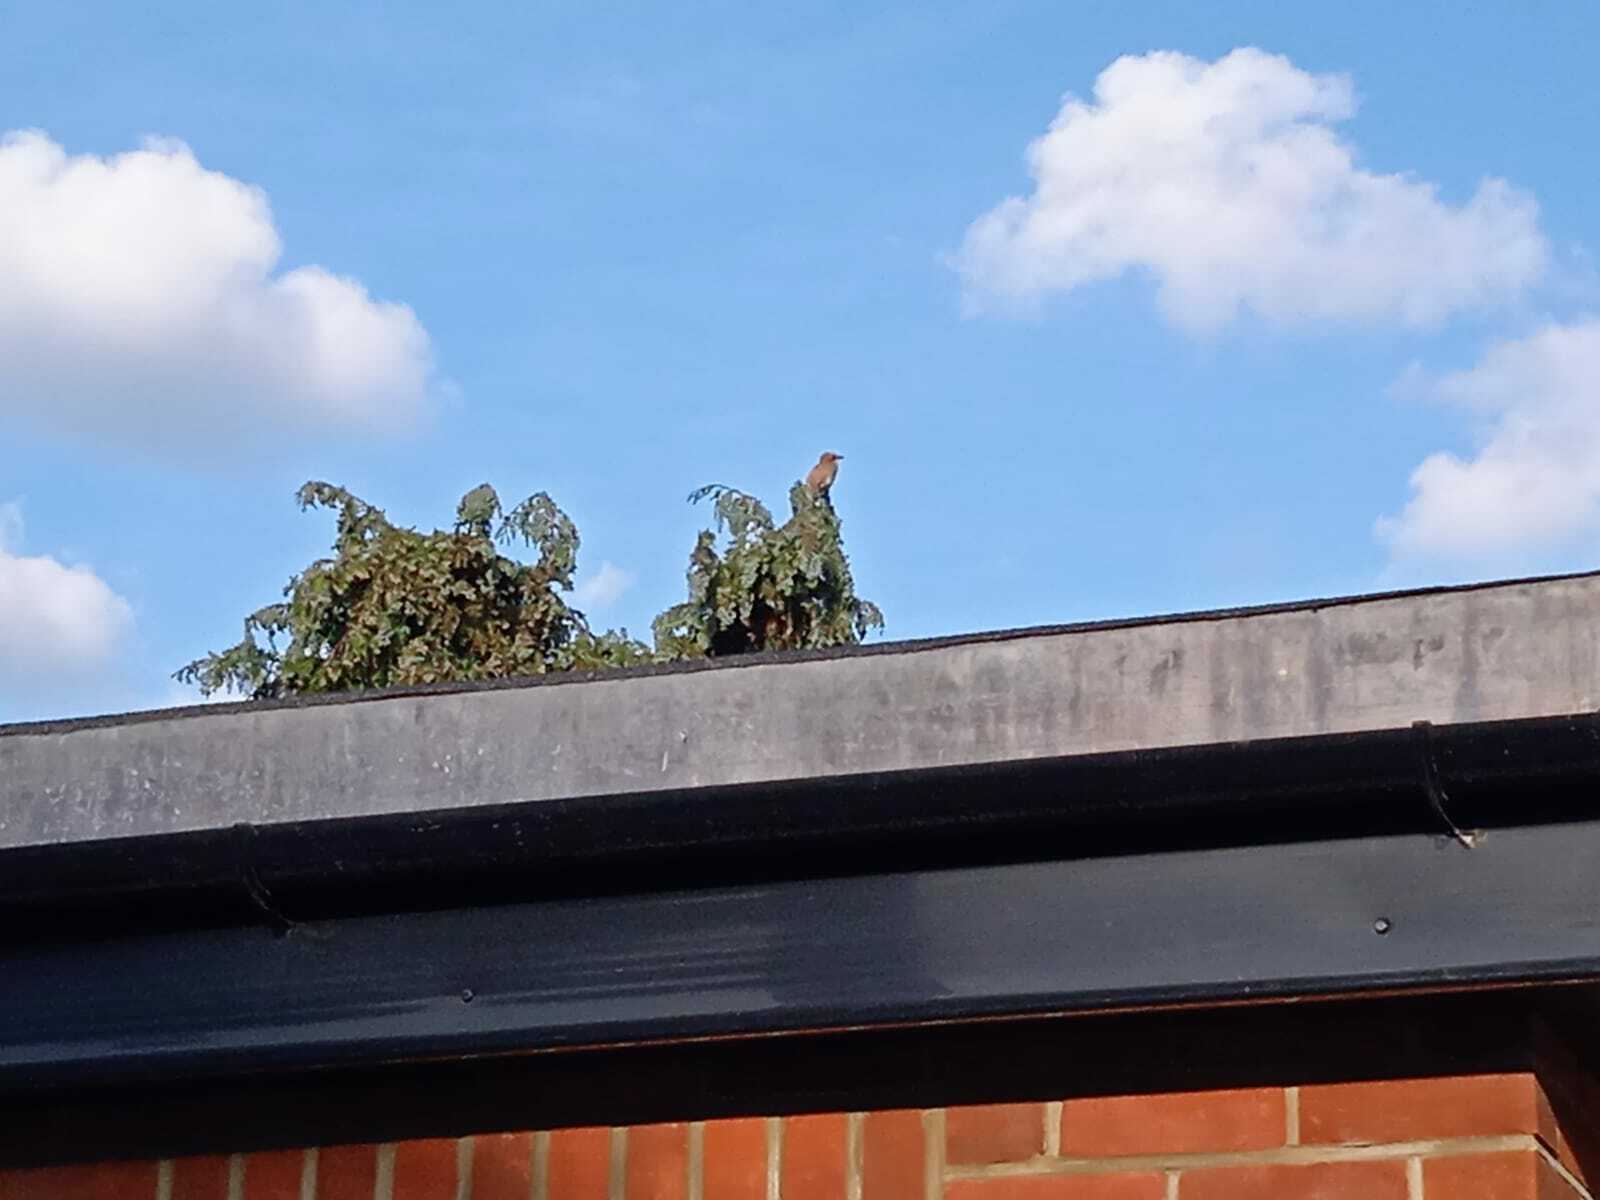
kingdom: Animalia
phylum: Chordata
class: Aves
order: Passeriformes
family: Corvidae
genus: Garrulus
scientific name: Garrulus glandarius
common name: Eurasian jay
